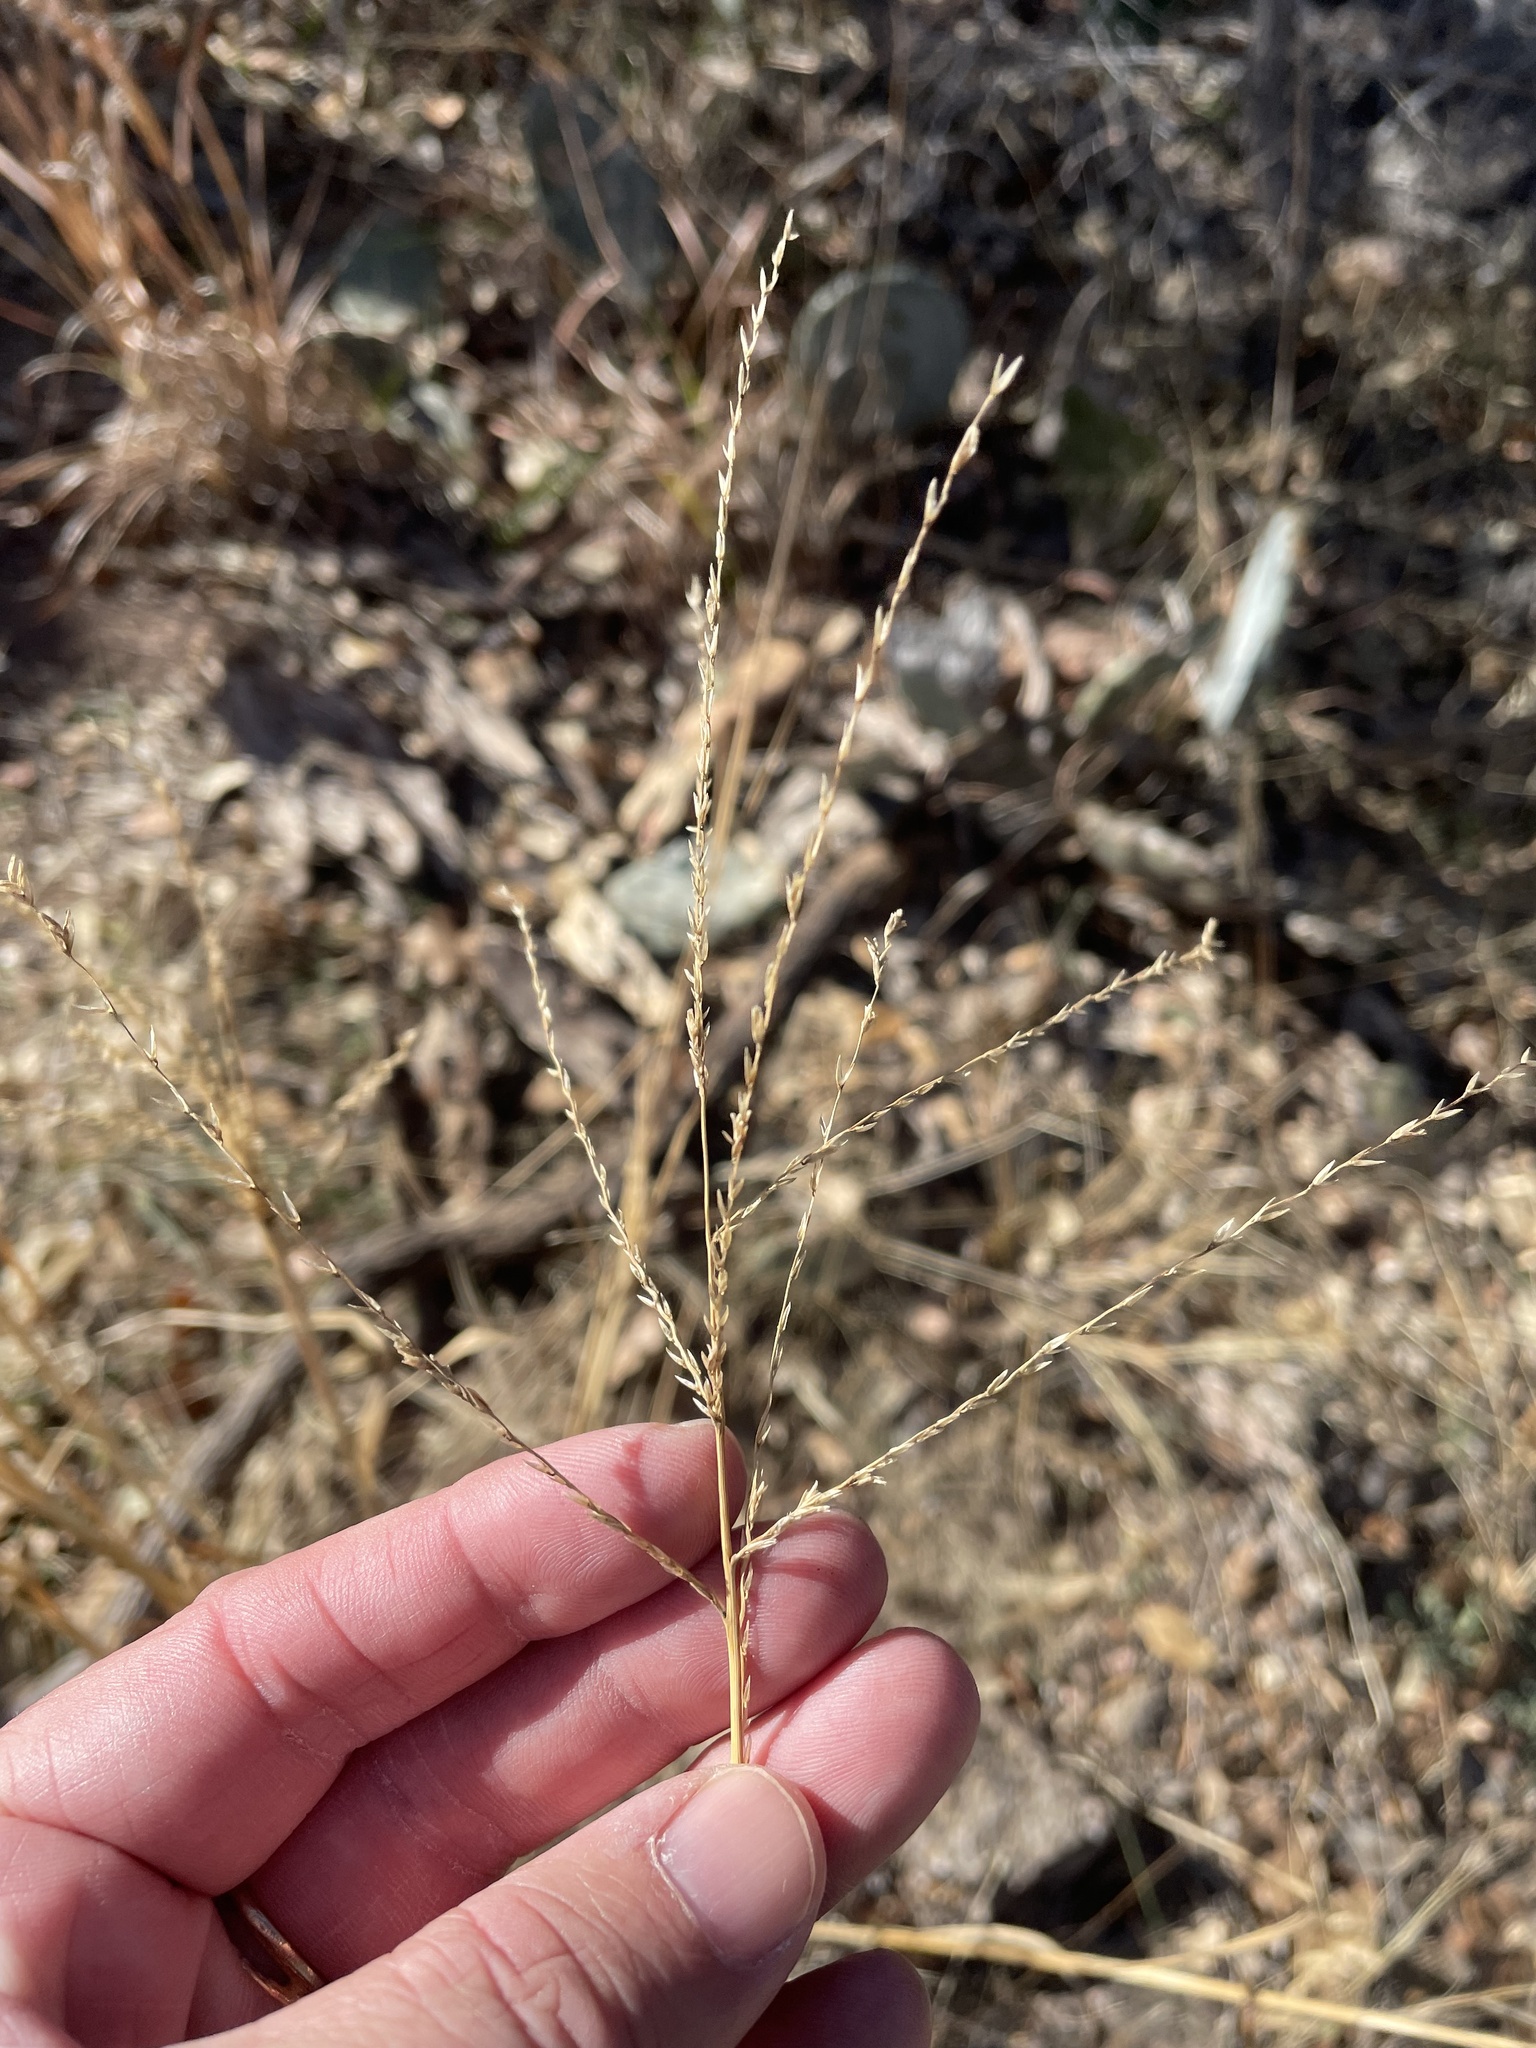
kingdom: Plantae
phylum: Tracheophyta
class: Liliopsida
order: Poales
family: Poaceae
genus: Disakisperma
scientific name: Disakisperma dubium
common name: Green sprangletop
